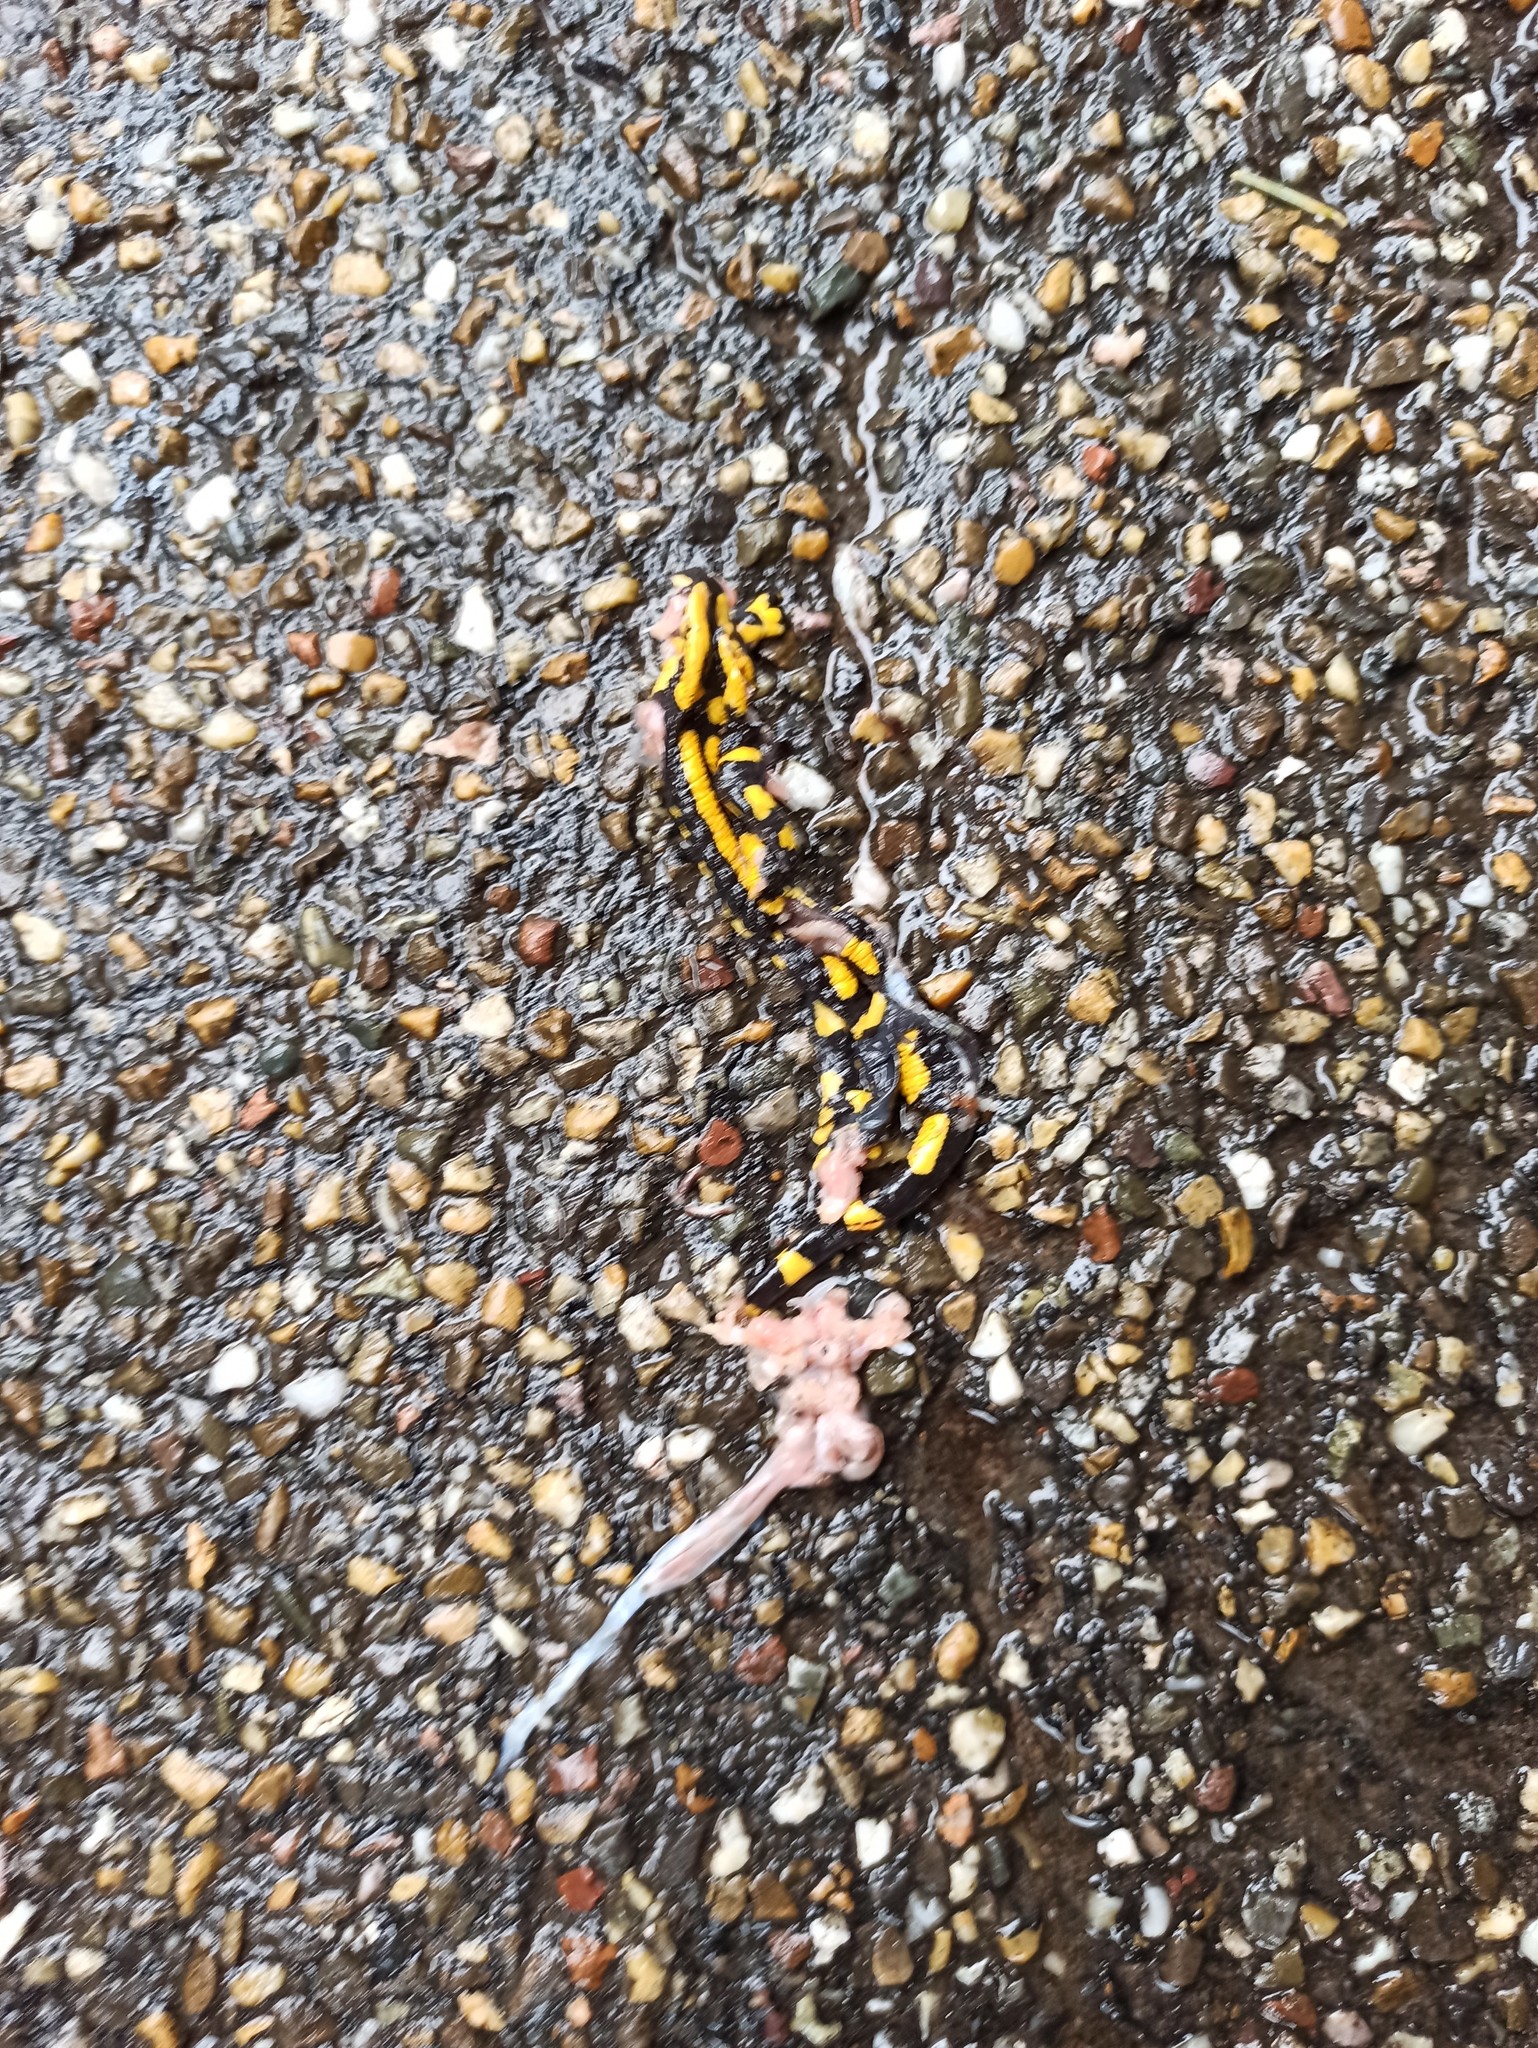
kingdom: Animalia
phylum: Chordata
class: Amphibia
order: Caudata
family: Salamandridae
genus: Salamandra
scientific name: Salamandra salamandra
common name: Fire salamander
